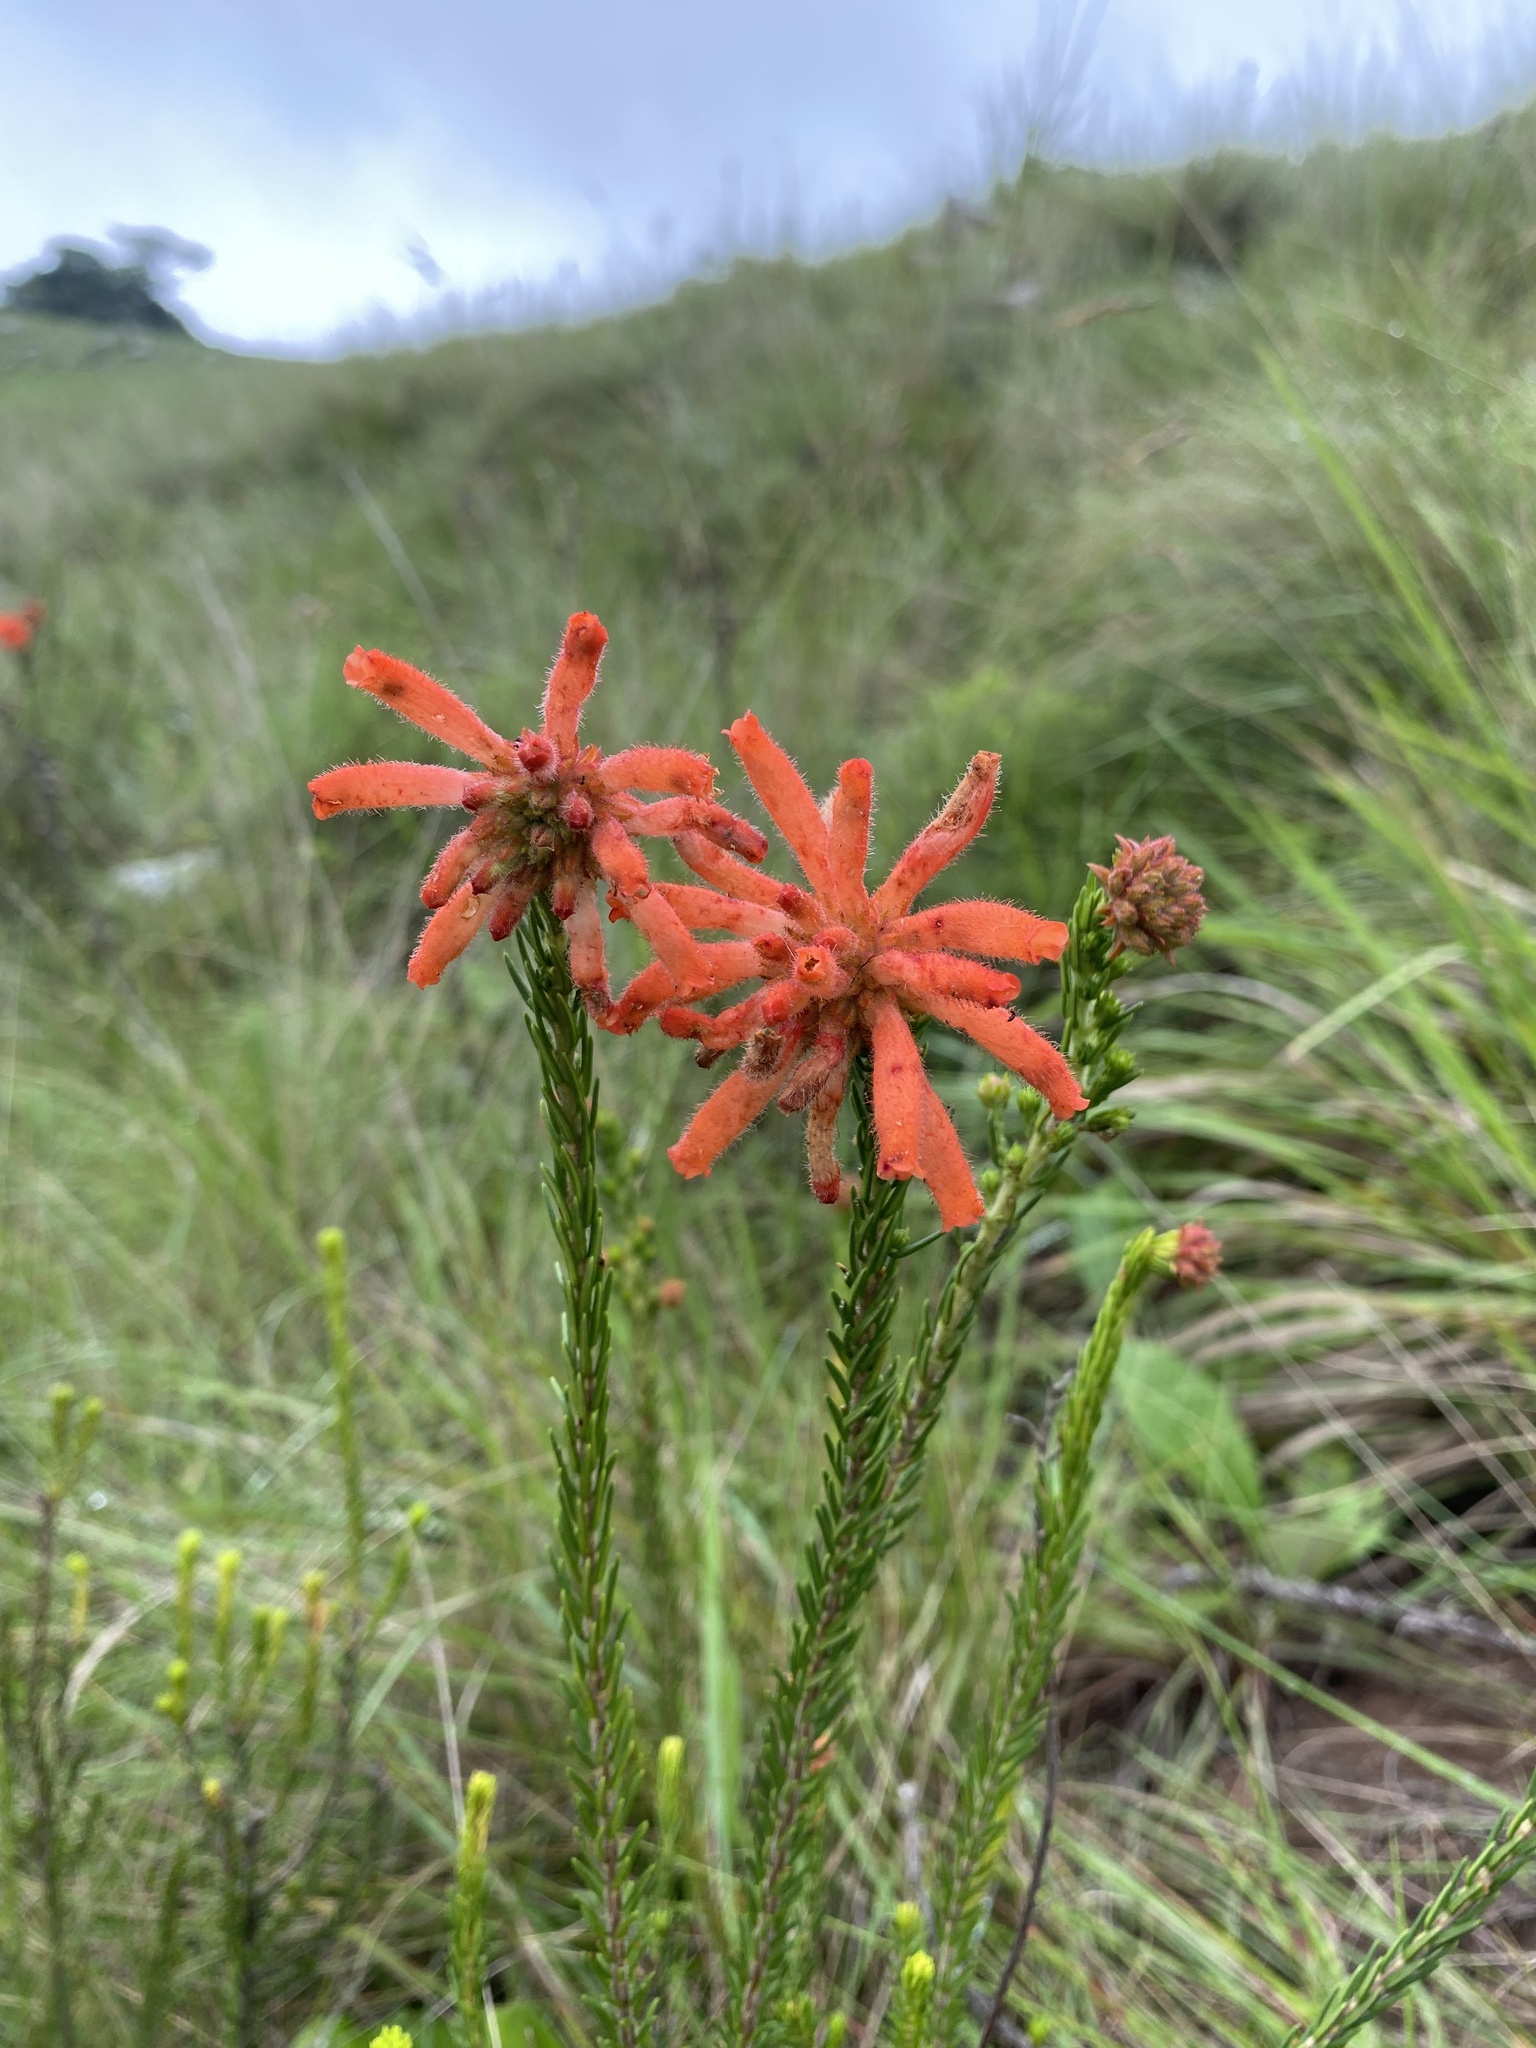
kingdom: Plantae
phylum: Tracheophyta
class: Magnoliopsida
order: Ericales
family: Ericaceae
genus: Erica
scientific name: Erica cerinthoides
